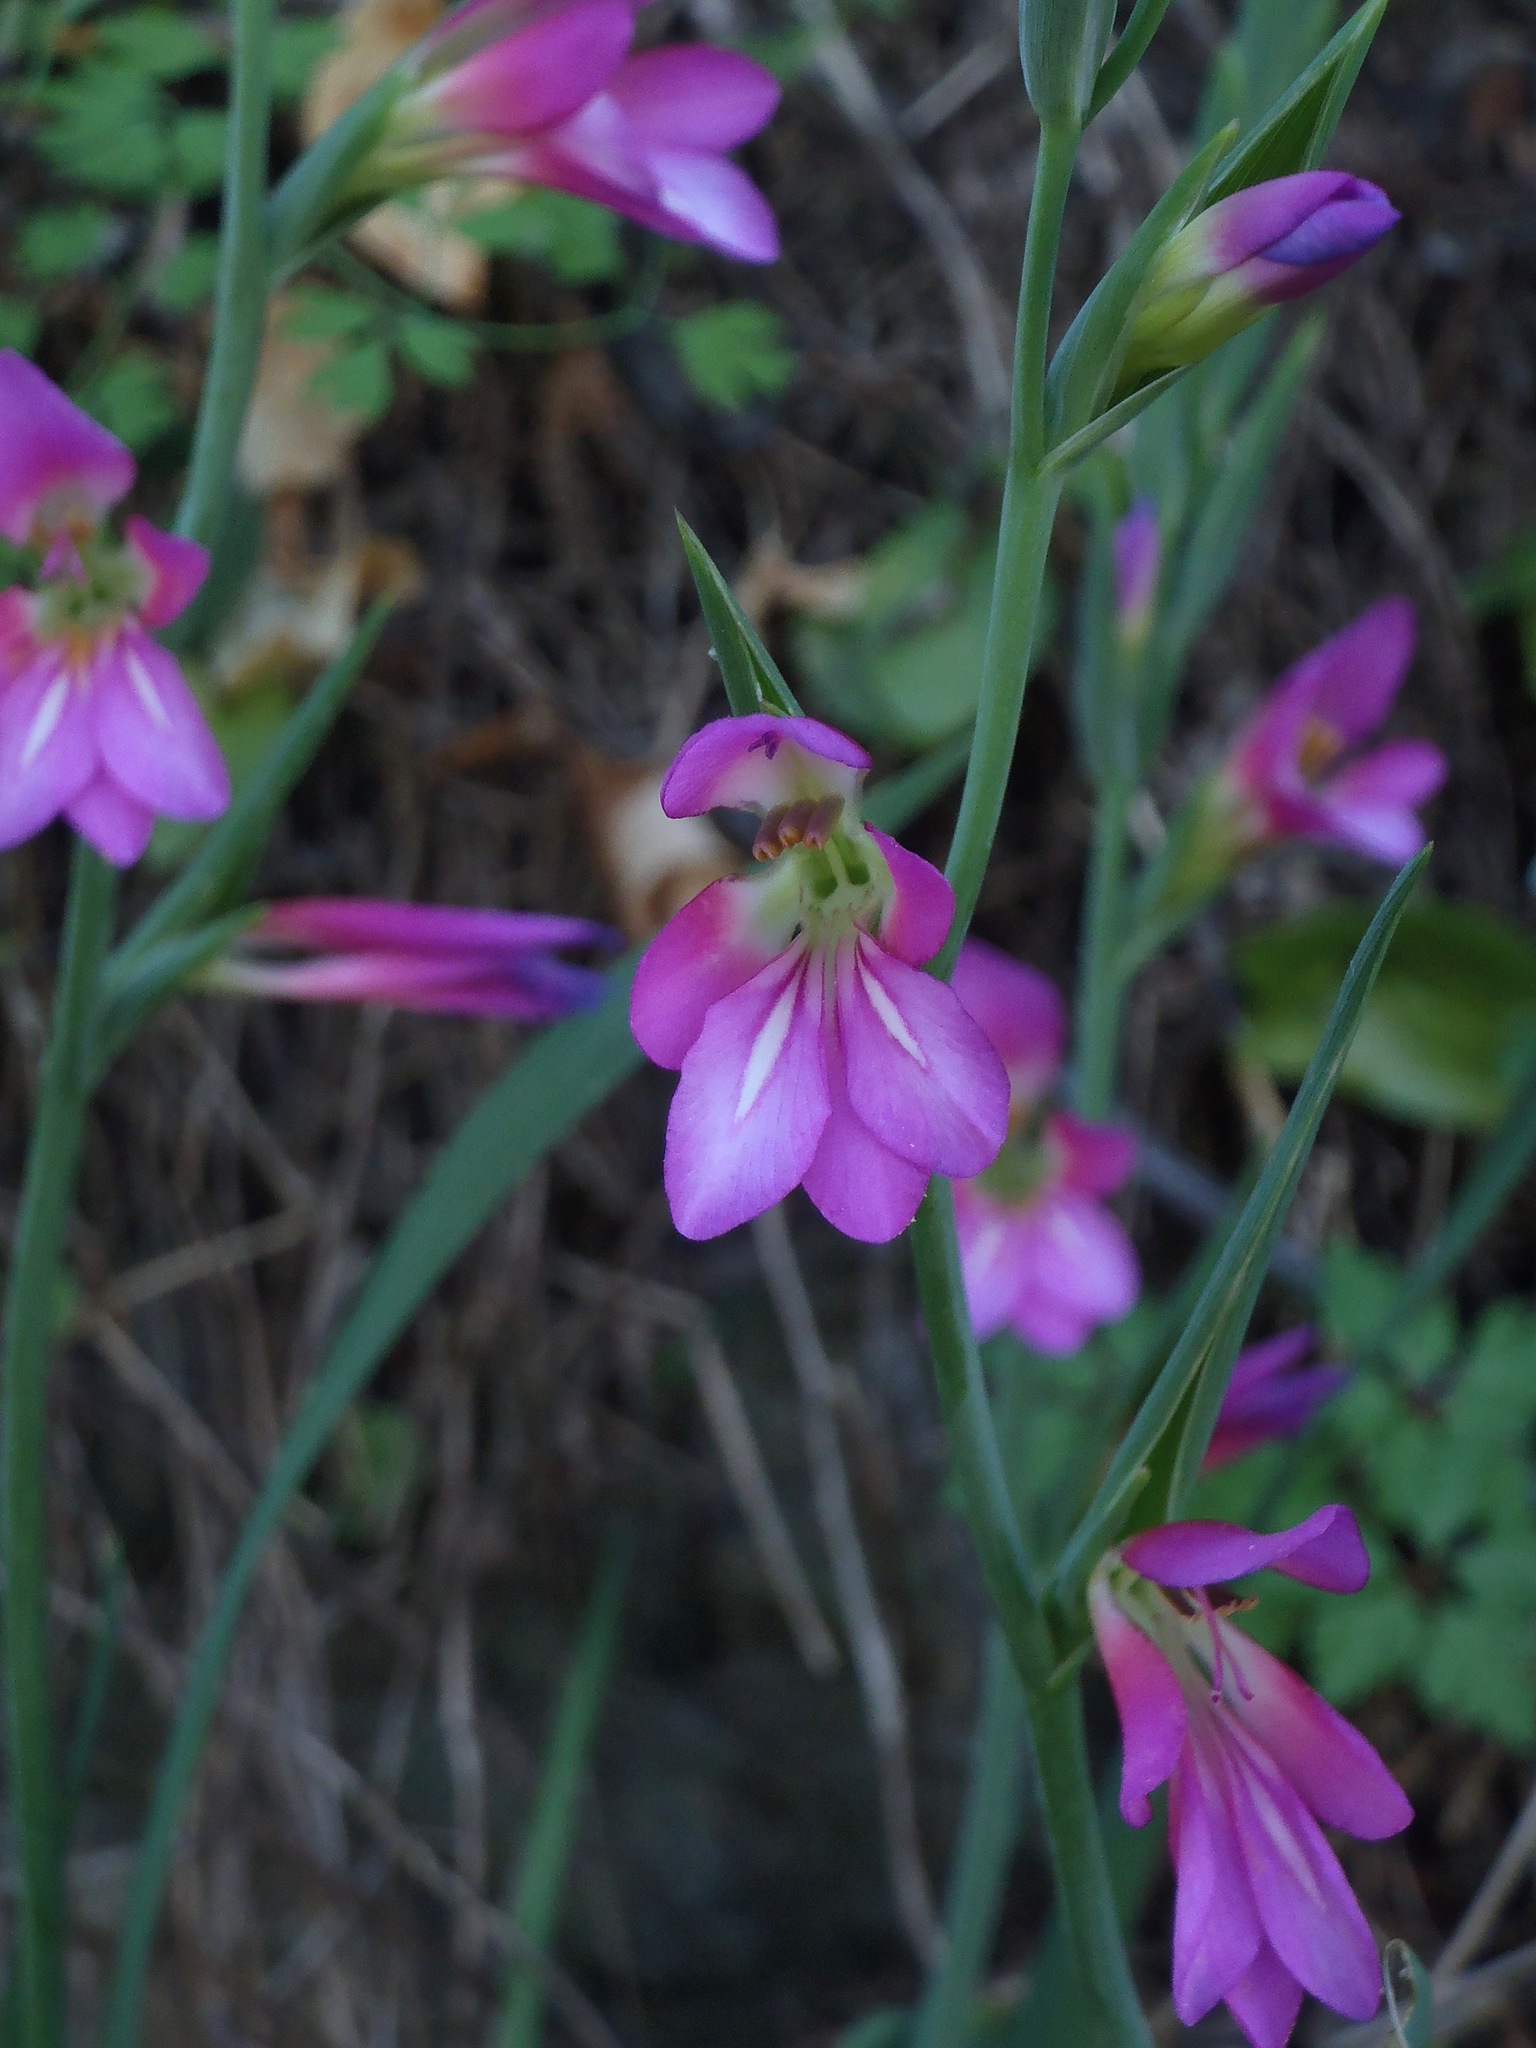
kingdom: Plantae
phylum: Tracheophyta
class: Liliopsida
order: Asparagales
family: Iridaceae
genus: Gladiolus
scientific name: Gladiolus italicus
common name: Field gladiolus
